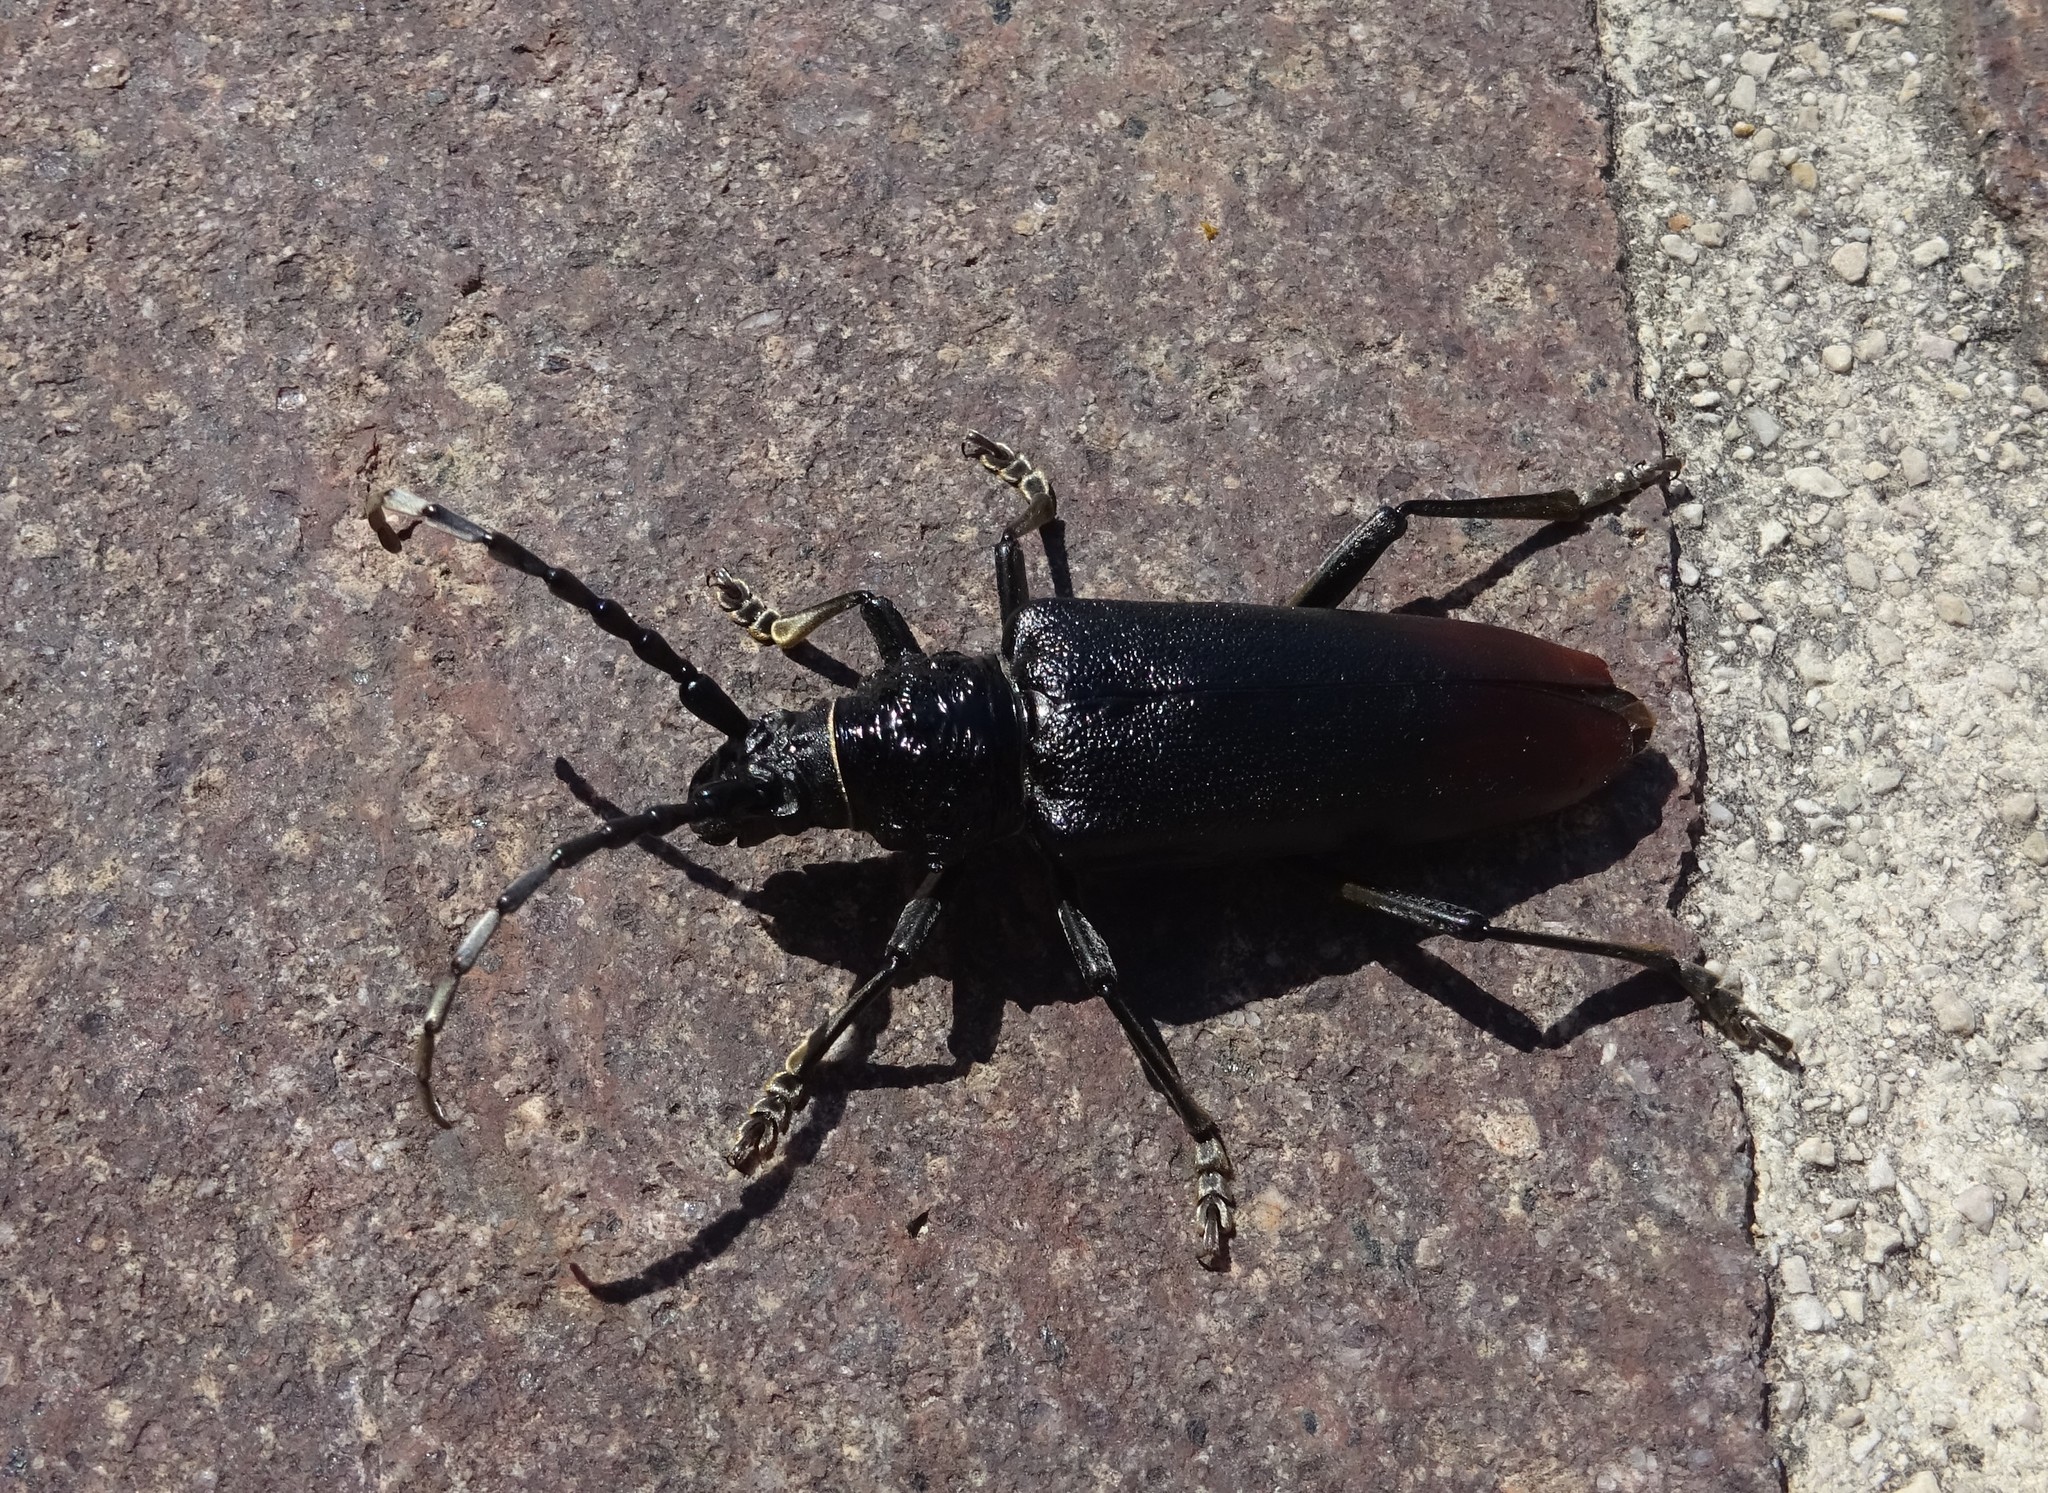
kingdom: Animalia
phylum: Arthropoda
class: Insecta
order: Coleoptera
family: Cerambycidae
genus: Cerambyx
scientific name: Cerambyx miles
